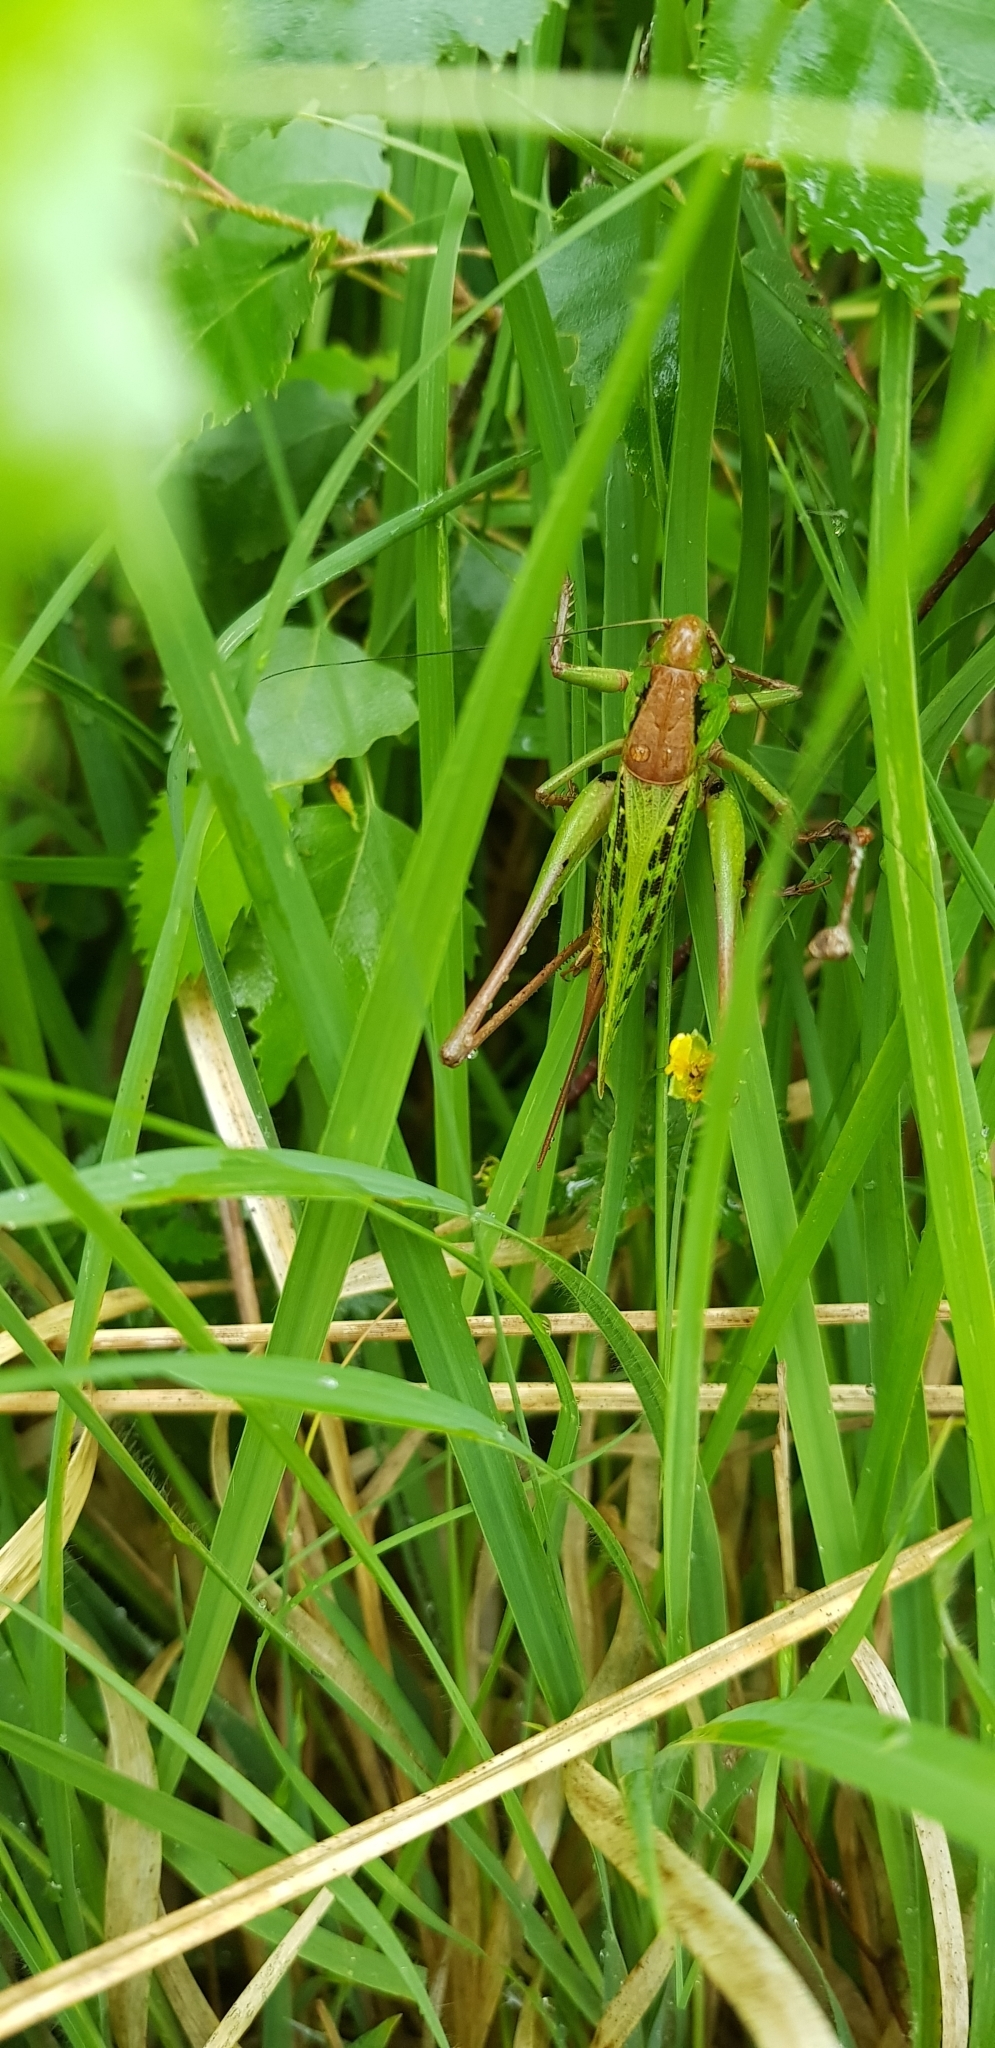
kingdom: Animalia
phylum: Arthropoda
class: Insecta
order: Orthoptera
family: Tettigoniidae
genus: Decticus
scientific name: Decticus verrucivorus
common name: Wart-biter
